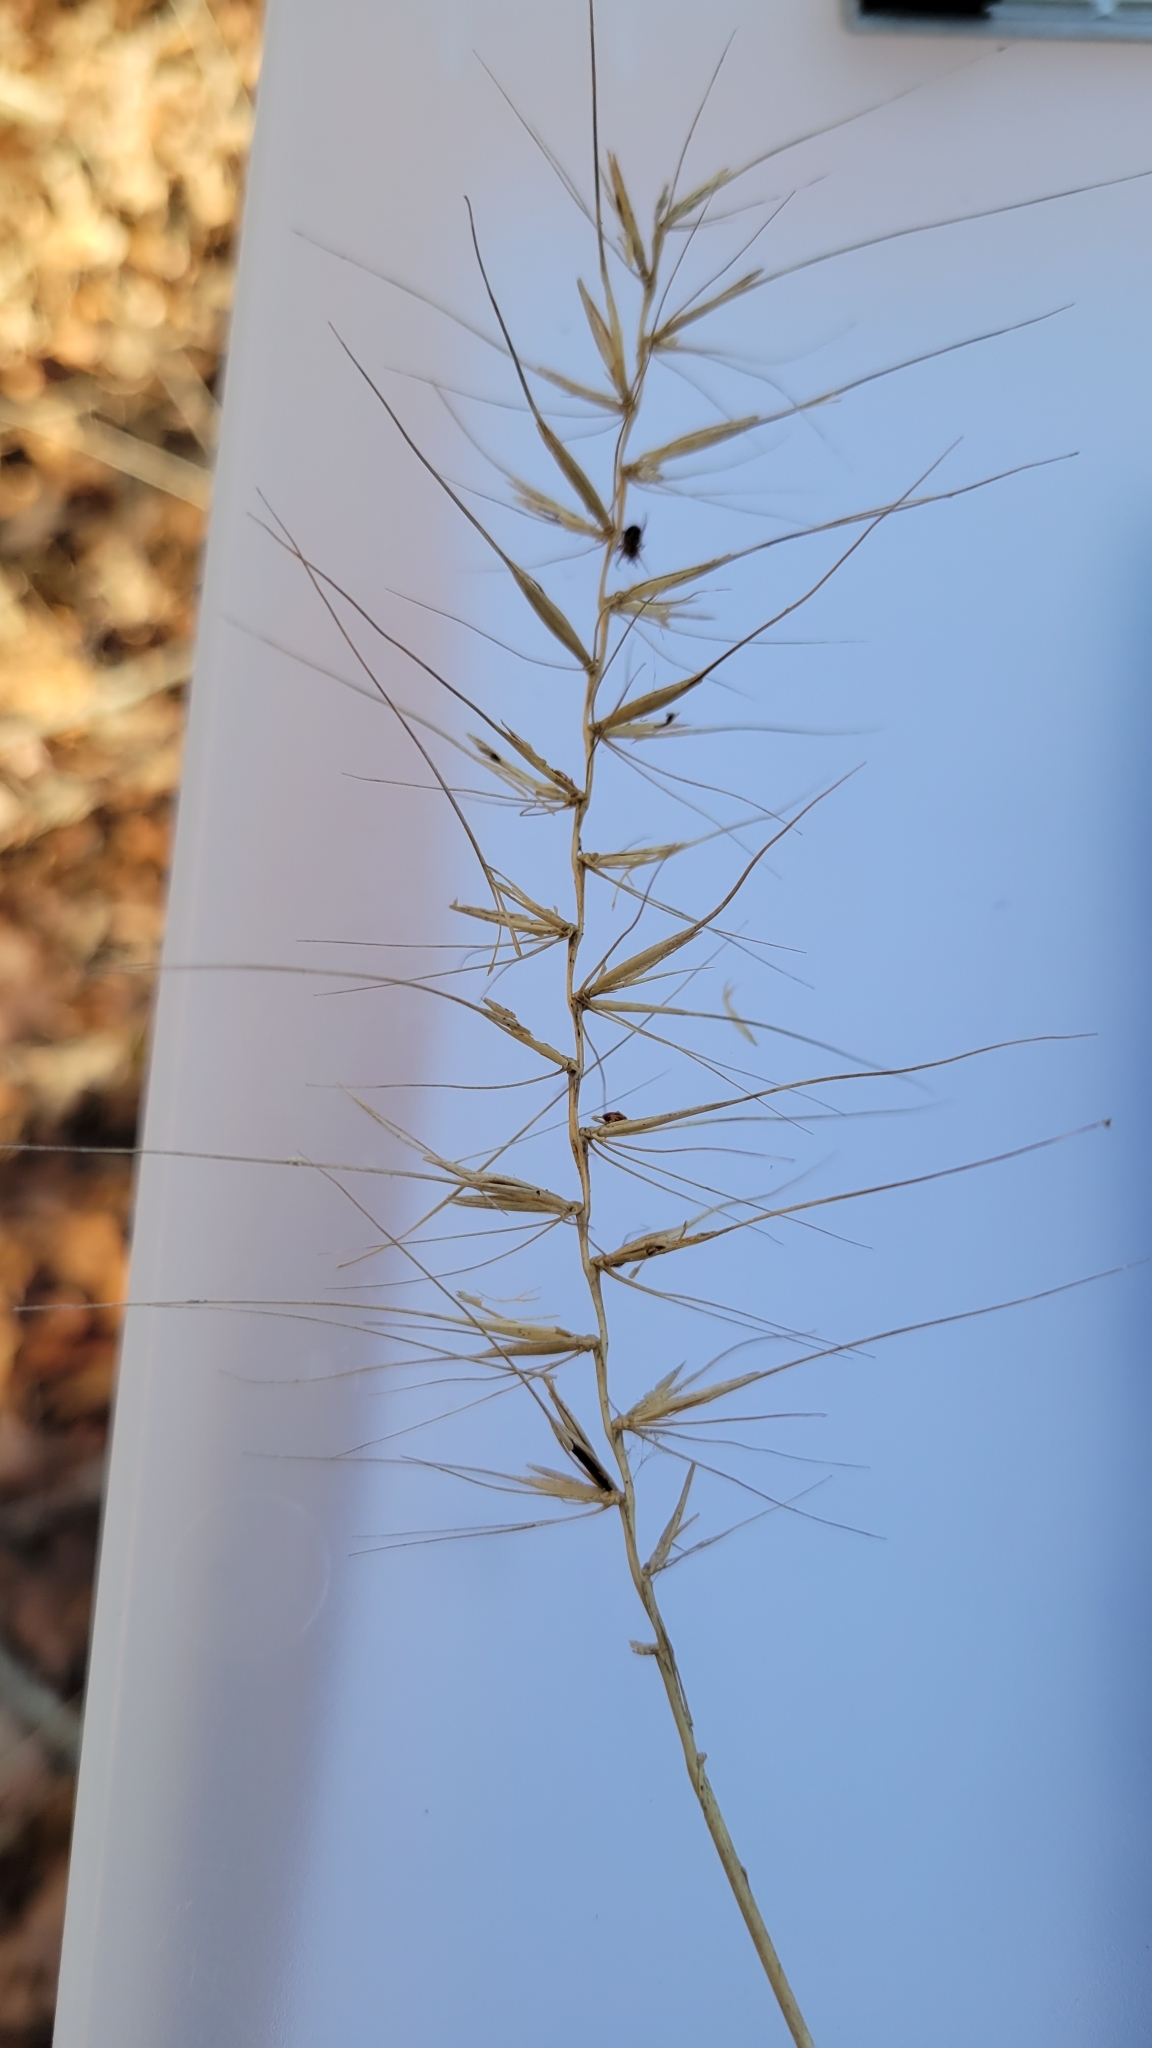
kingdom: Plantae
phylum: Tracheophyta
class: Liliopsida
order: Poales
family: Poaceae
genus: Elymus
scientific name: Elymus hystrix
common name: Bottlebrush grass
